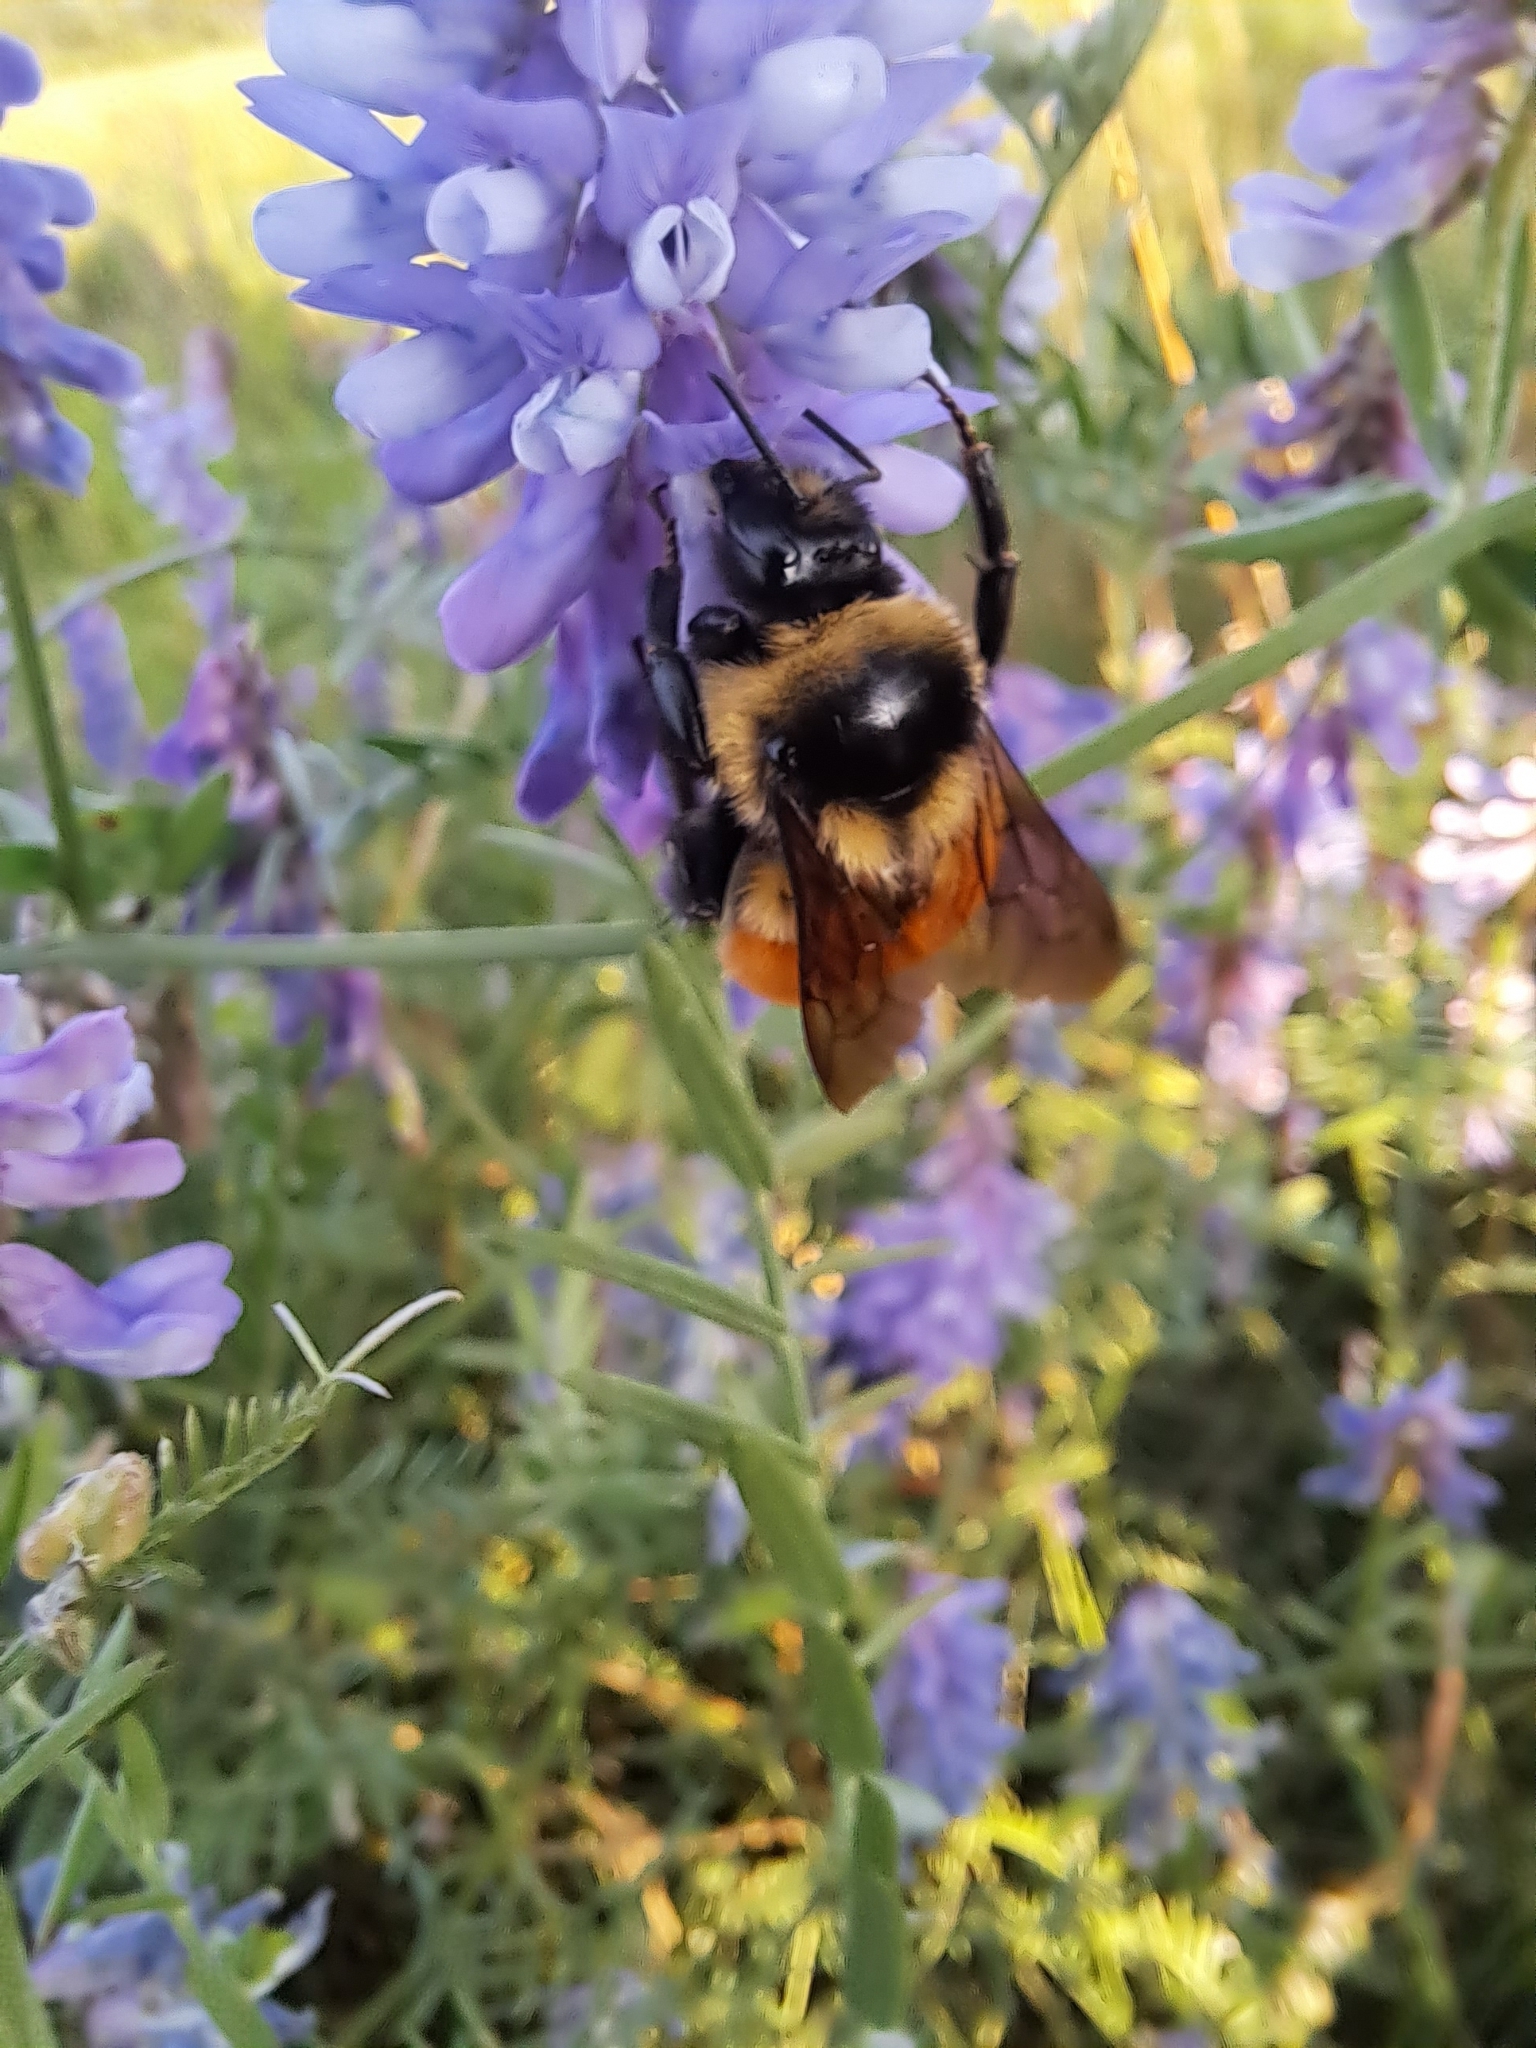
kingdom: Animalia
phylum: Arthropoda
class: Insecta
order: Hymenoptera
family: Apidae
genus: Bombus
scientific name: Bombus ternarius
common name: Tri-colored bumble bee
